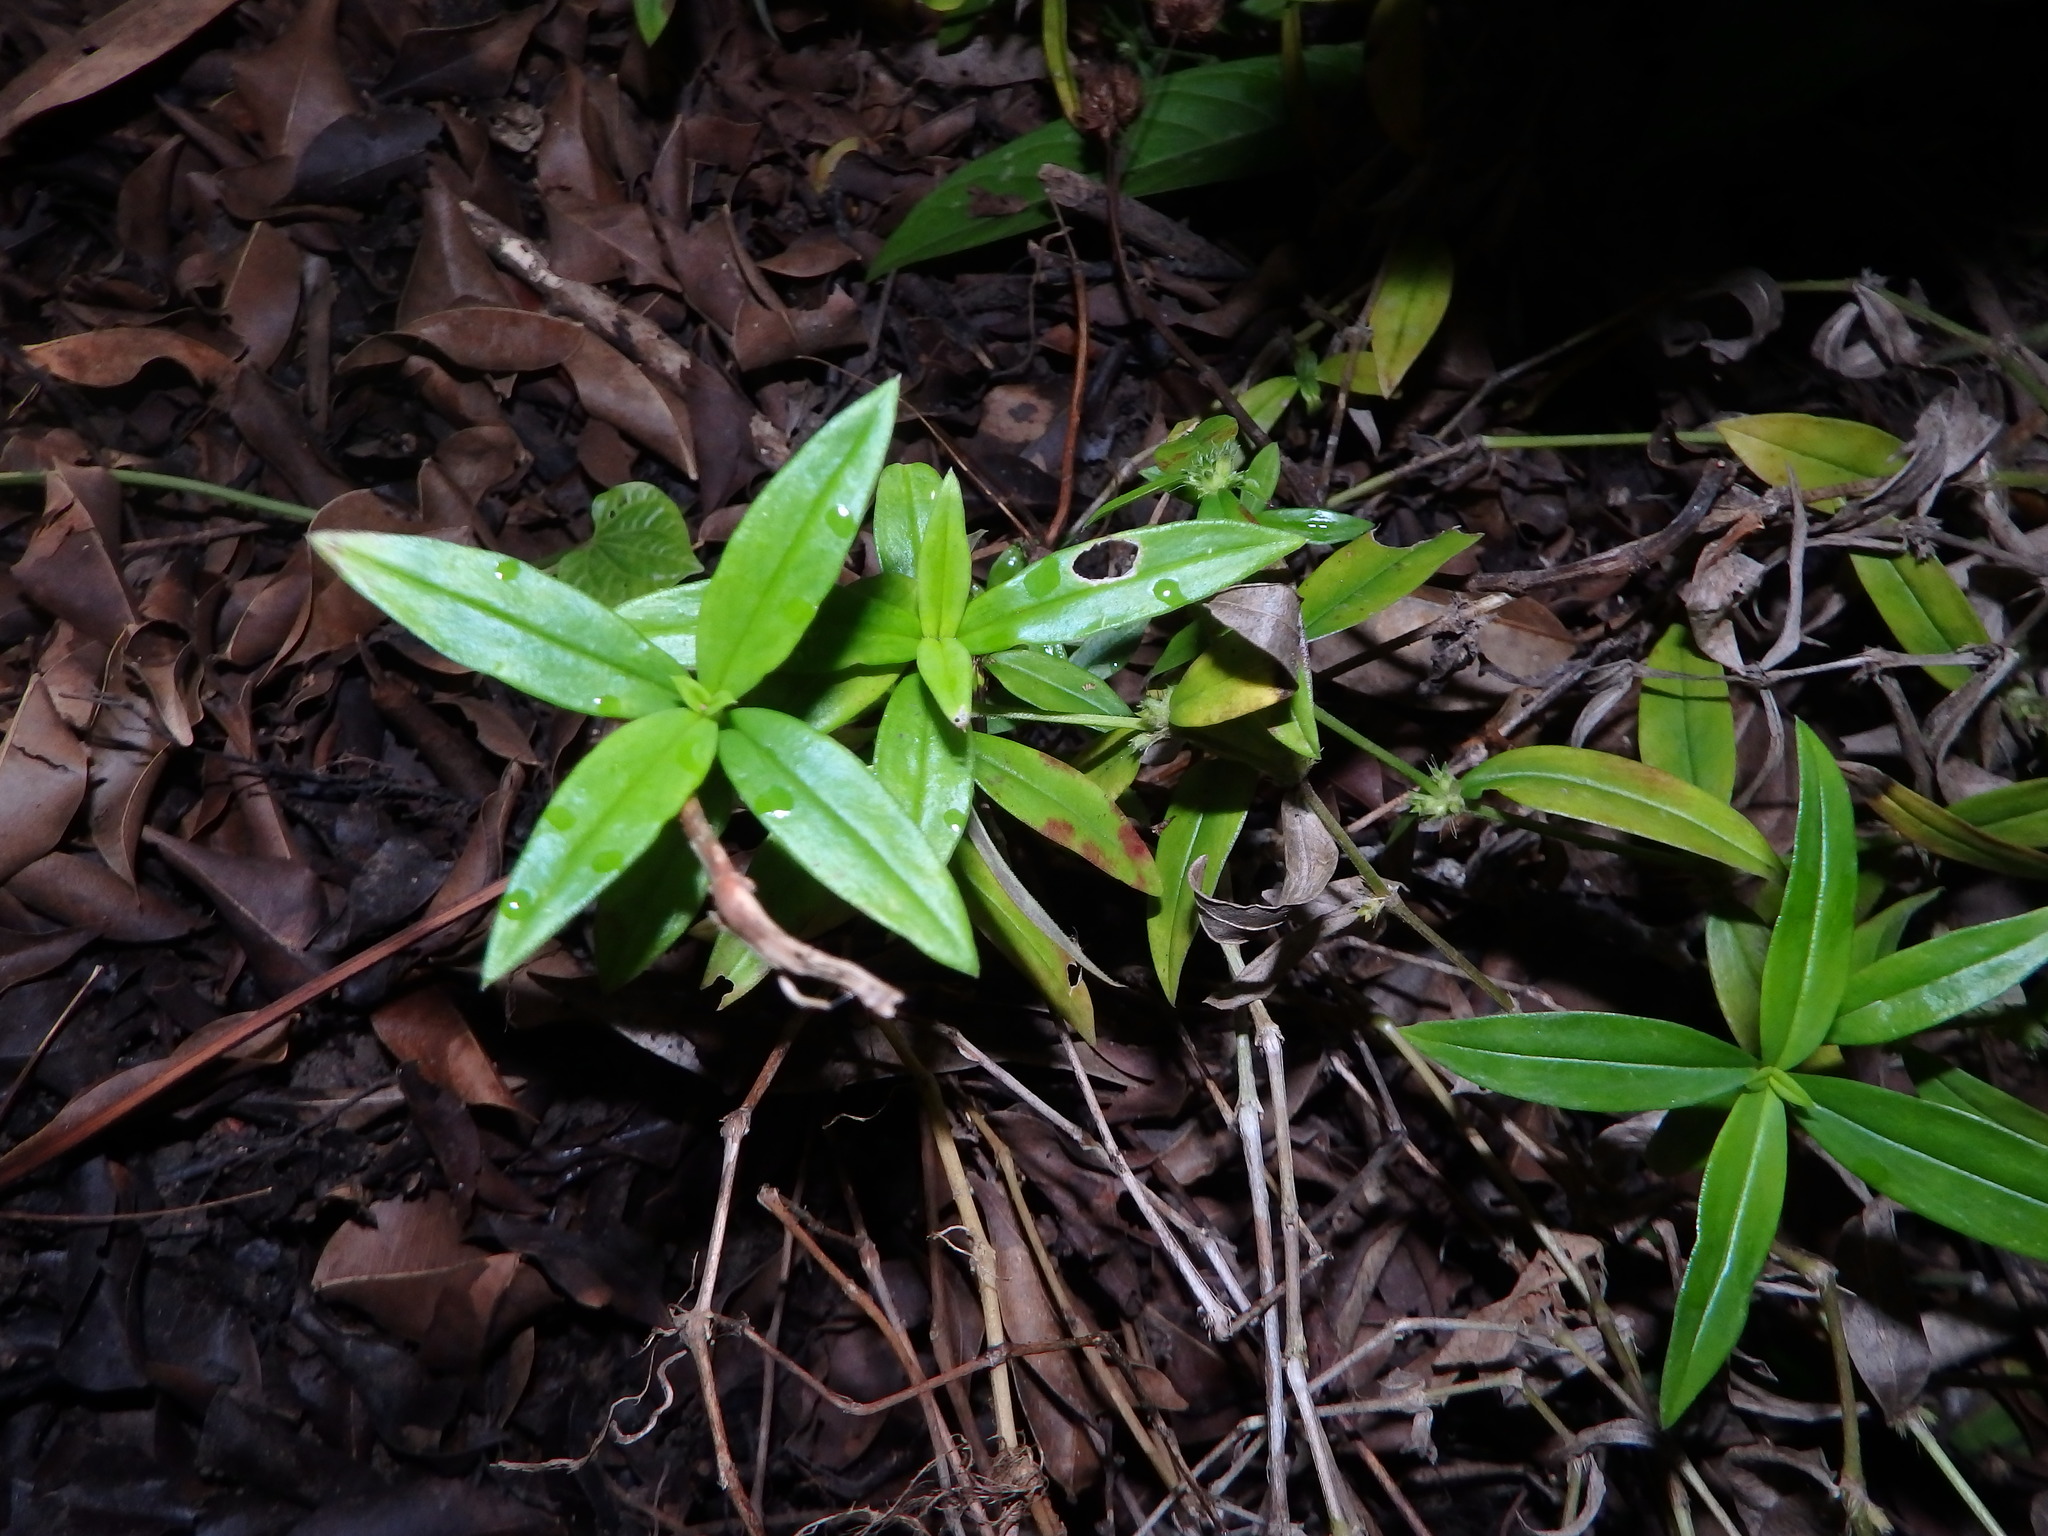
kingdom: Plantae
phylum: Tracheophyta
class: Magnoliopsida
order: Gentianales
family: Rubiaceae
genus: Scleromitrion
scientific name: Scleromitrion verticillatum
